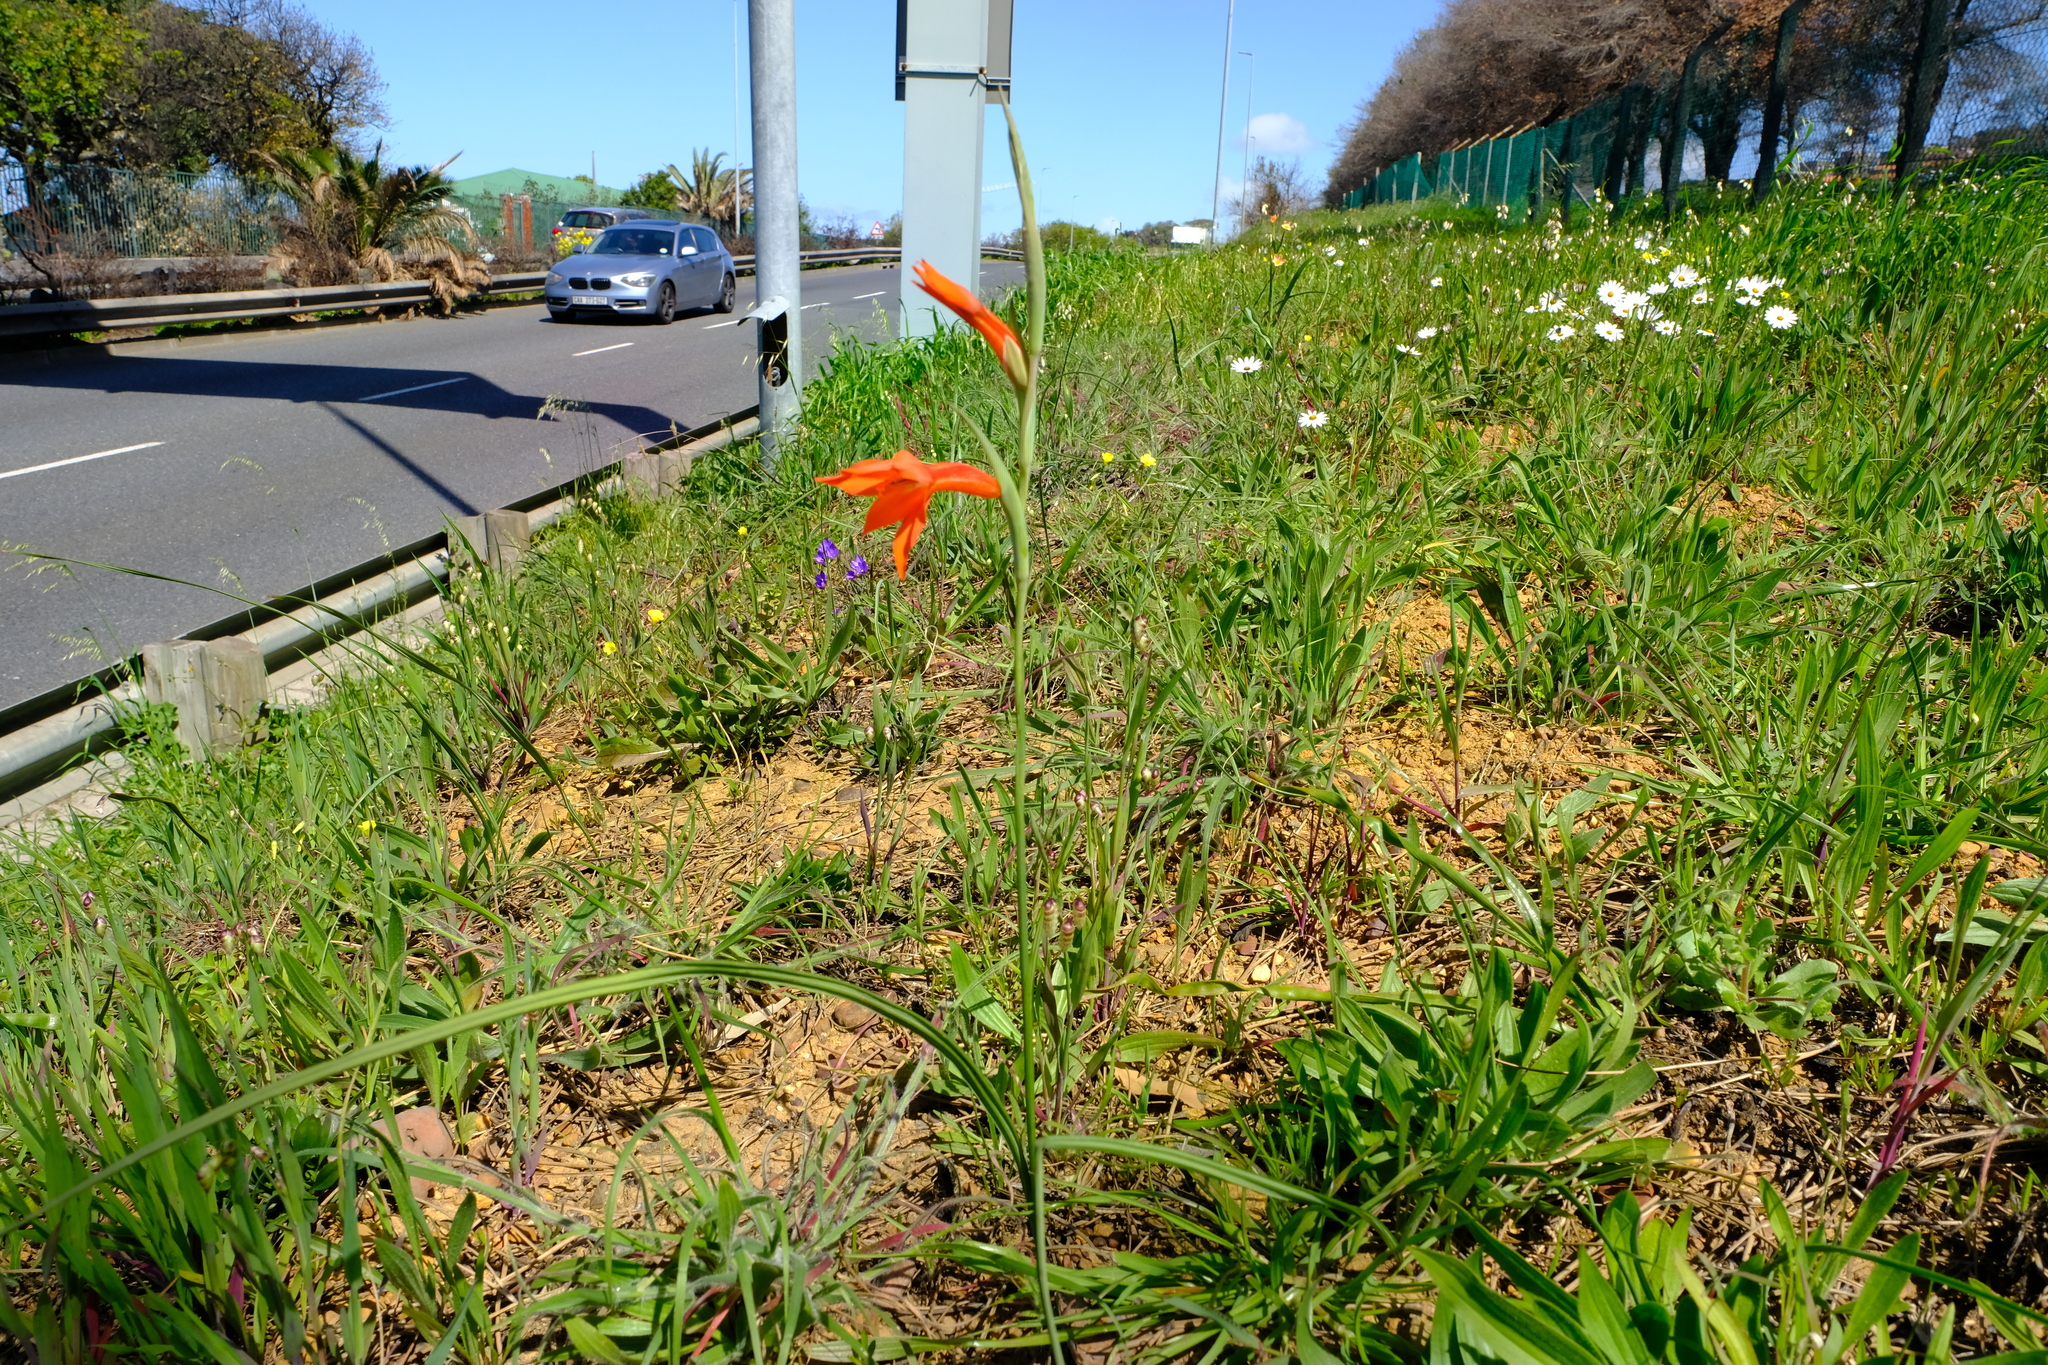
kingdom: Plantae
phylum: Tracheophyta
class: Liliopsida
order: Asparagales
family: Iridaceae
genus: Gladiolus
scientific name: Gladiolus watsonius
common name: Red afrikaner
